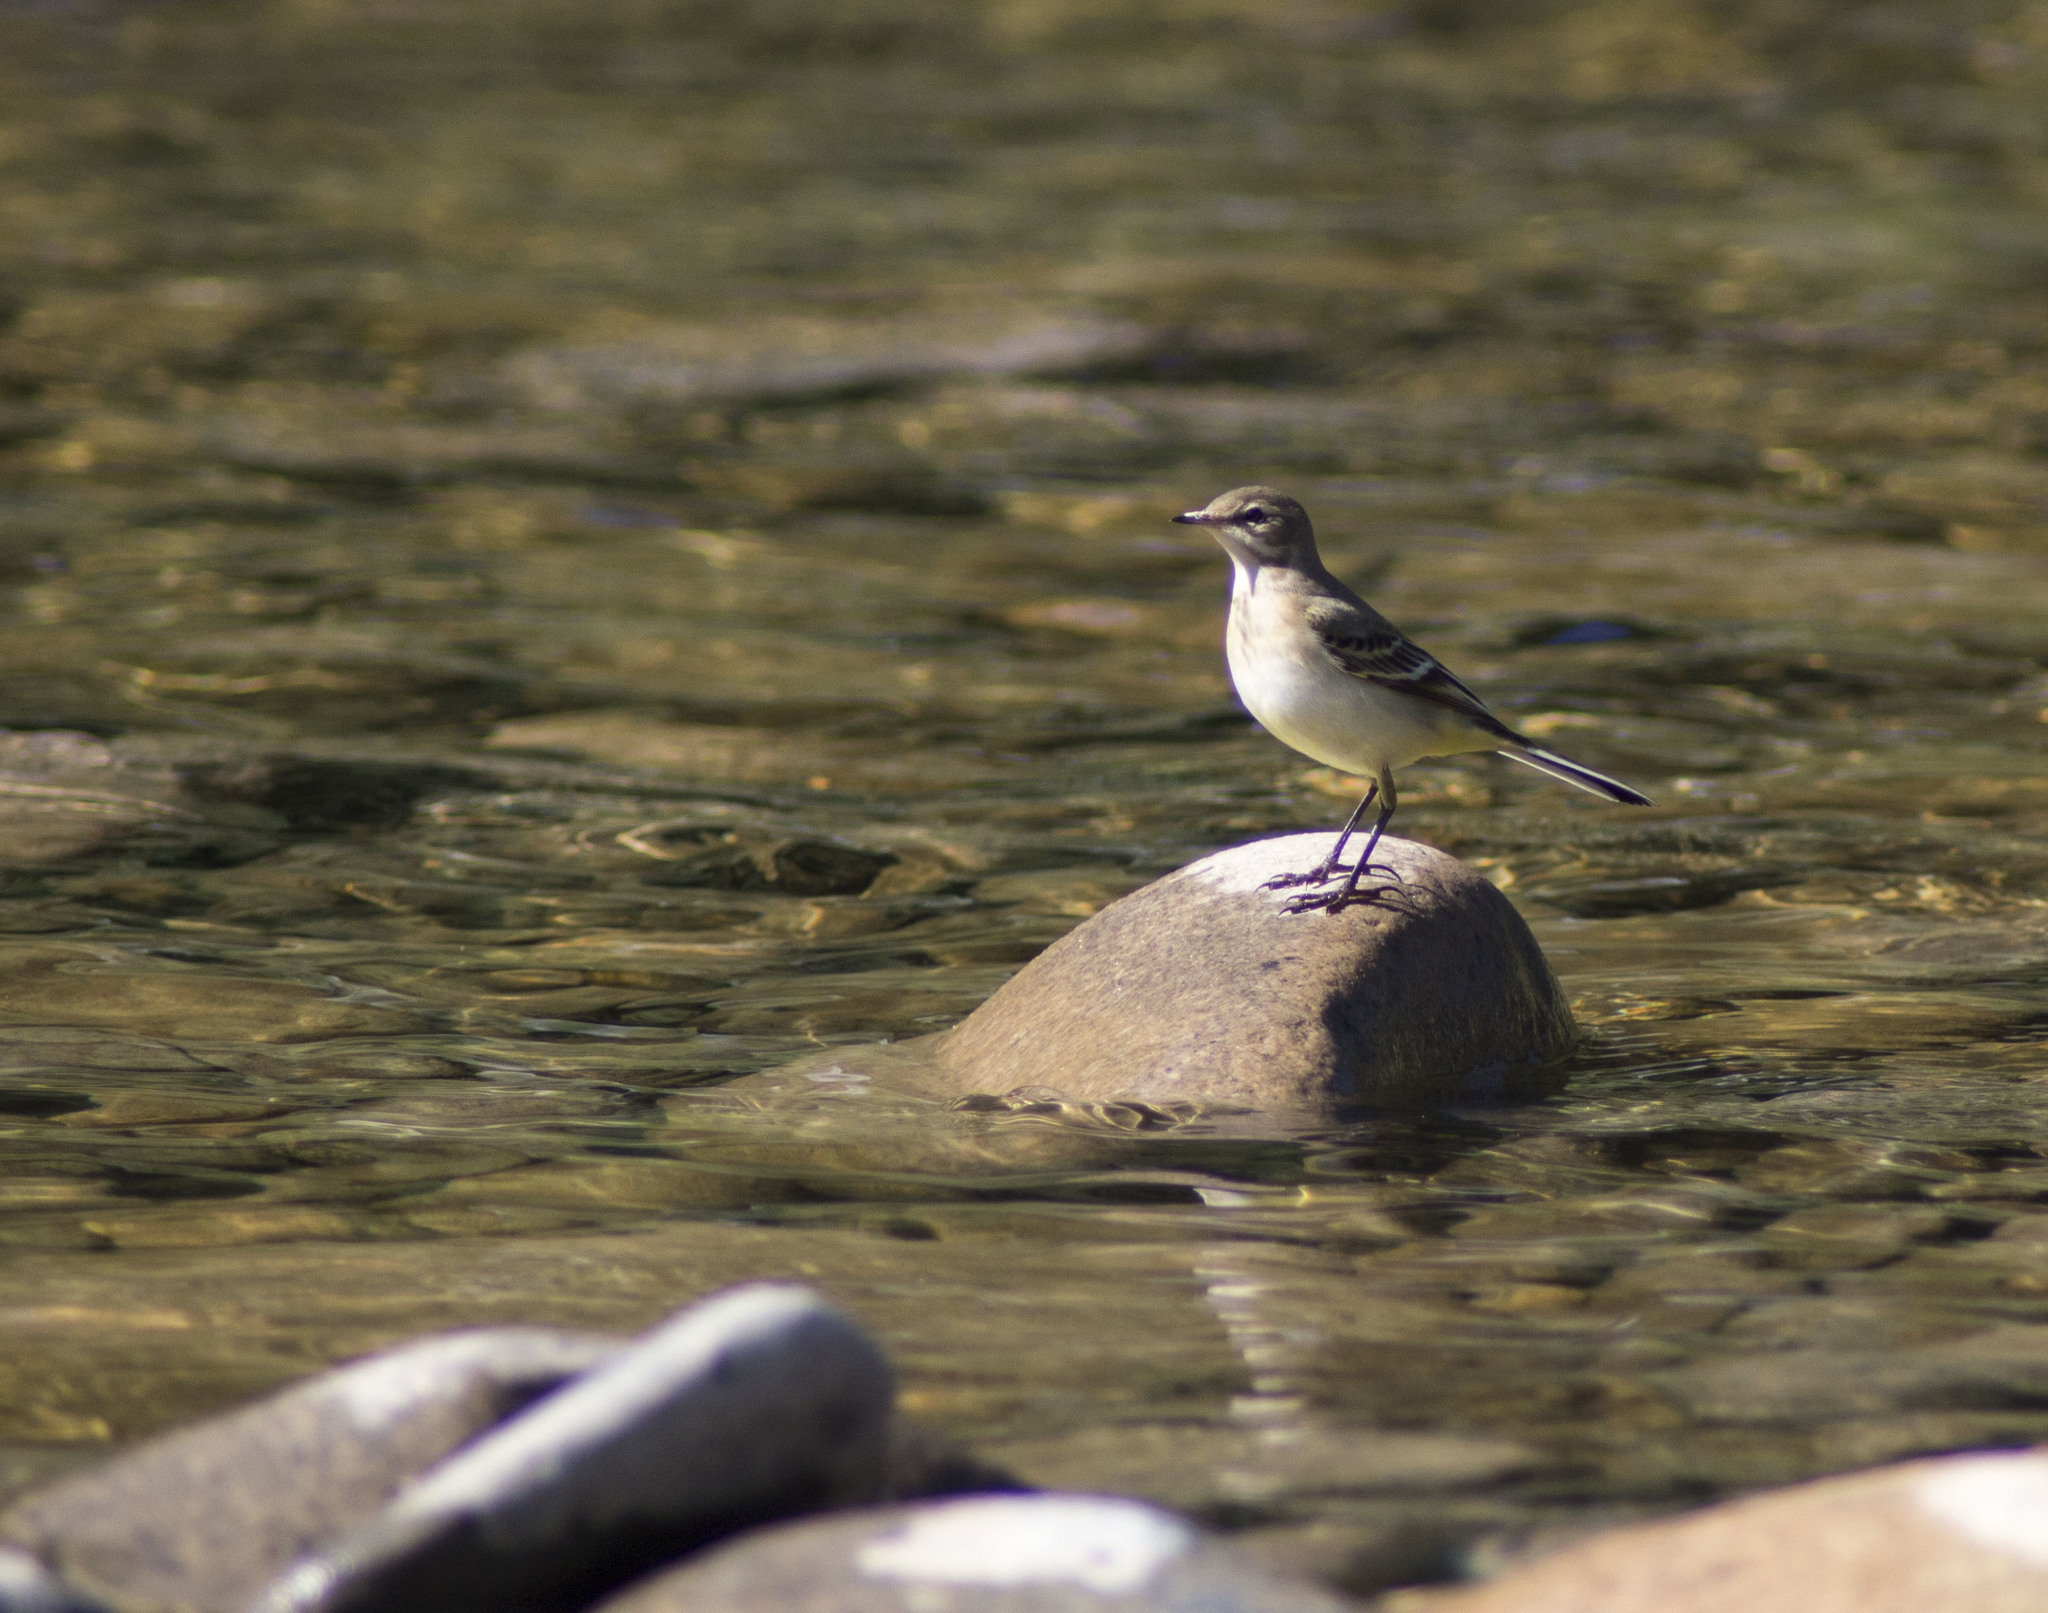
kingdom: Animalia
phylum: Chordata
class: Aves
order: Passeriformes
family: Motacillidae
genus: Motacilla
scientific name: Motacilla flava
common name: Western yellow wagtail
